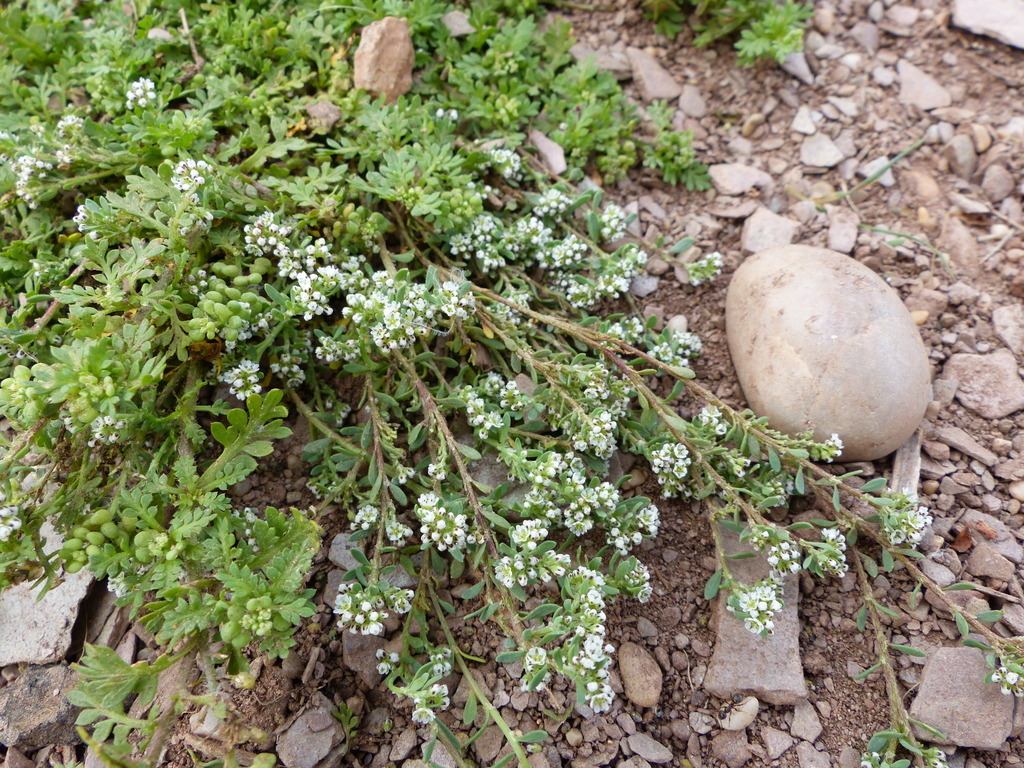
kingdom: Plantae
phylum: Tracheophyta
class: Magnoliopsida
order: Caryophyllales
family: Caryophyllaceae
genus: Corrigiola
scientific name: Corrigiola litoralis
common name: Strapwort
